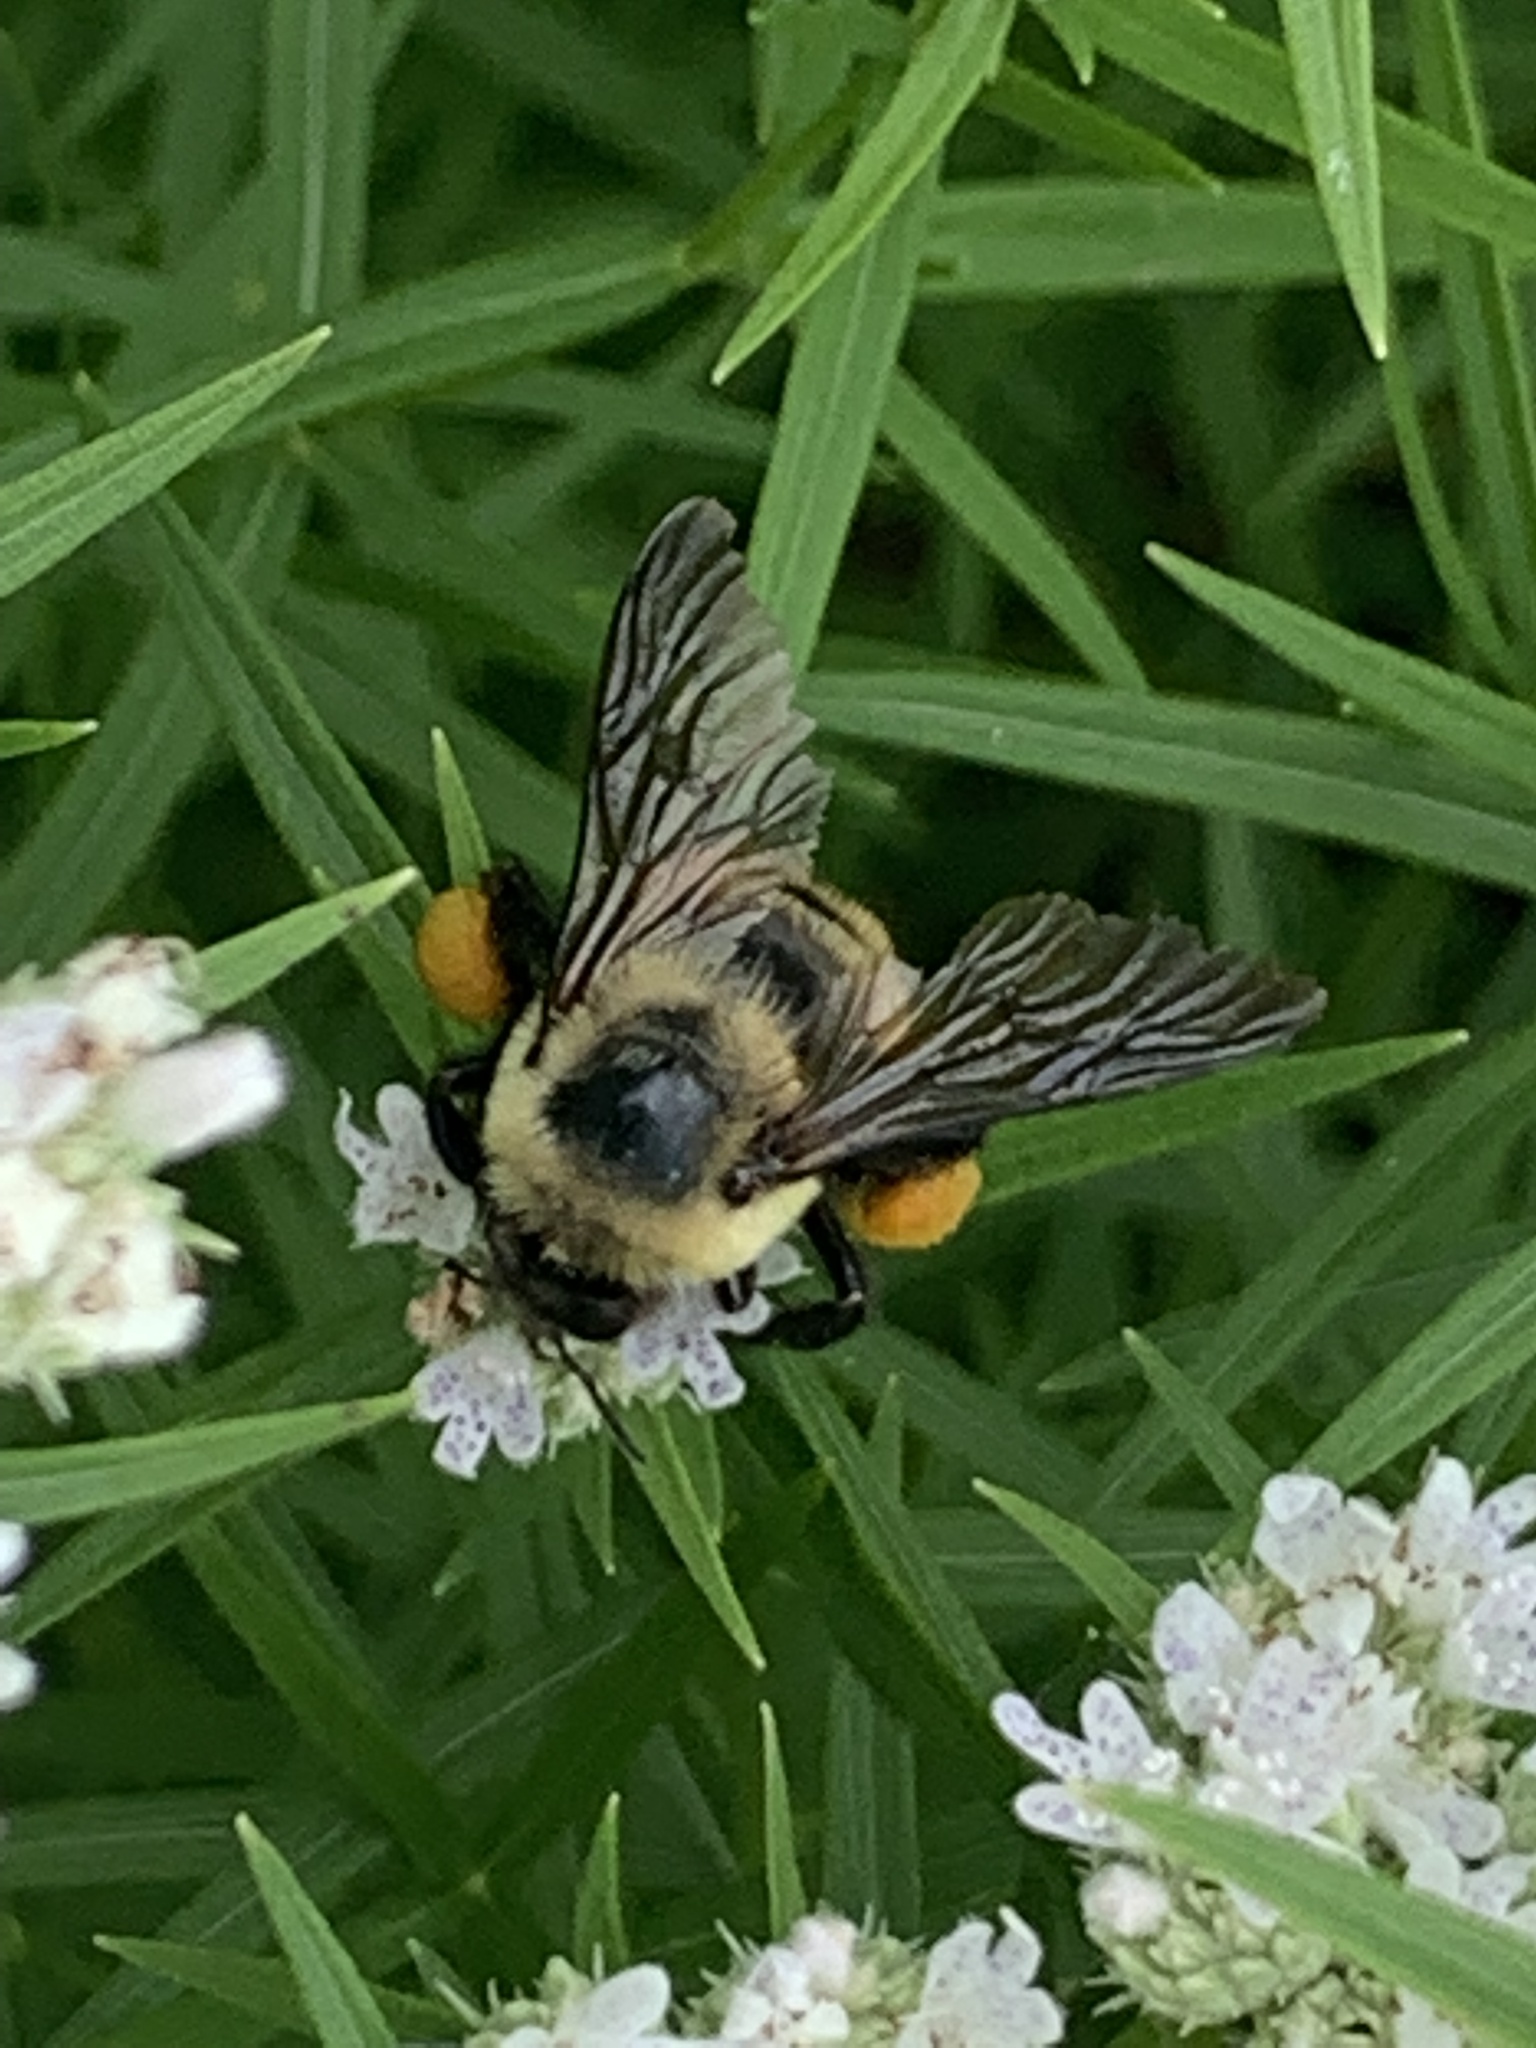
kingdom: Animalia
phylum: Arthropoda
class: Insecta
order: Hymenoptera
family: Apidae
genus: Bombus
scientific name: Bombus griseocollis
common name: Brown-belted bumble bee
